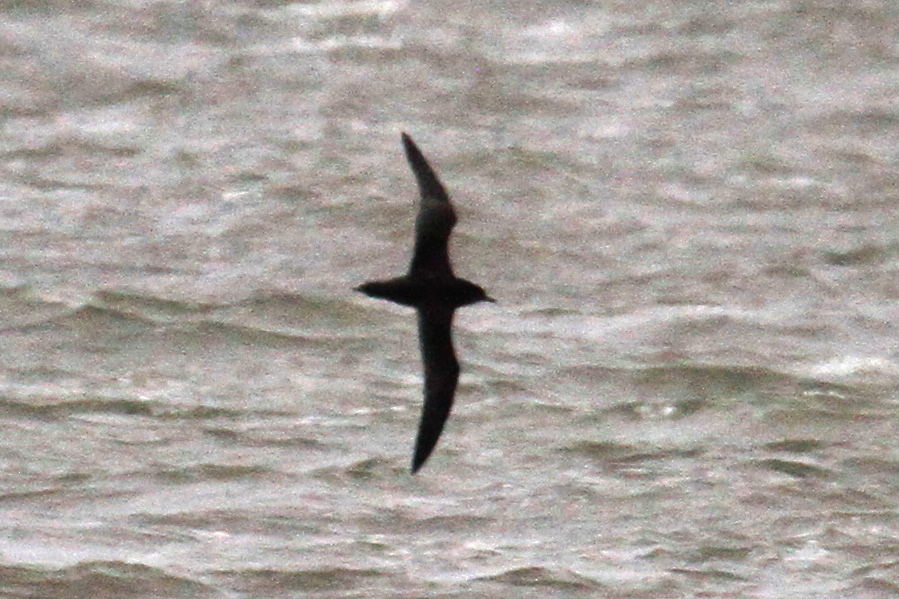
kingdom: Animalia
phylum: Chordata
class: Aves
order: Procellariiformes
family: Procellariidae
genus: Puffinus
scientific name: Puffinus tenuirostris
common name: Short-tailed shearwater
